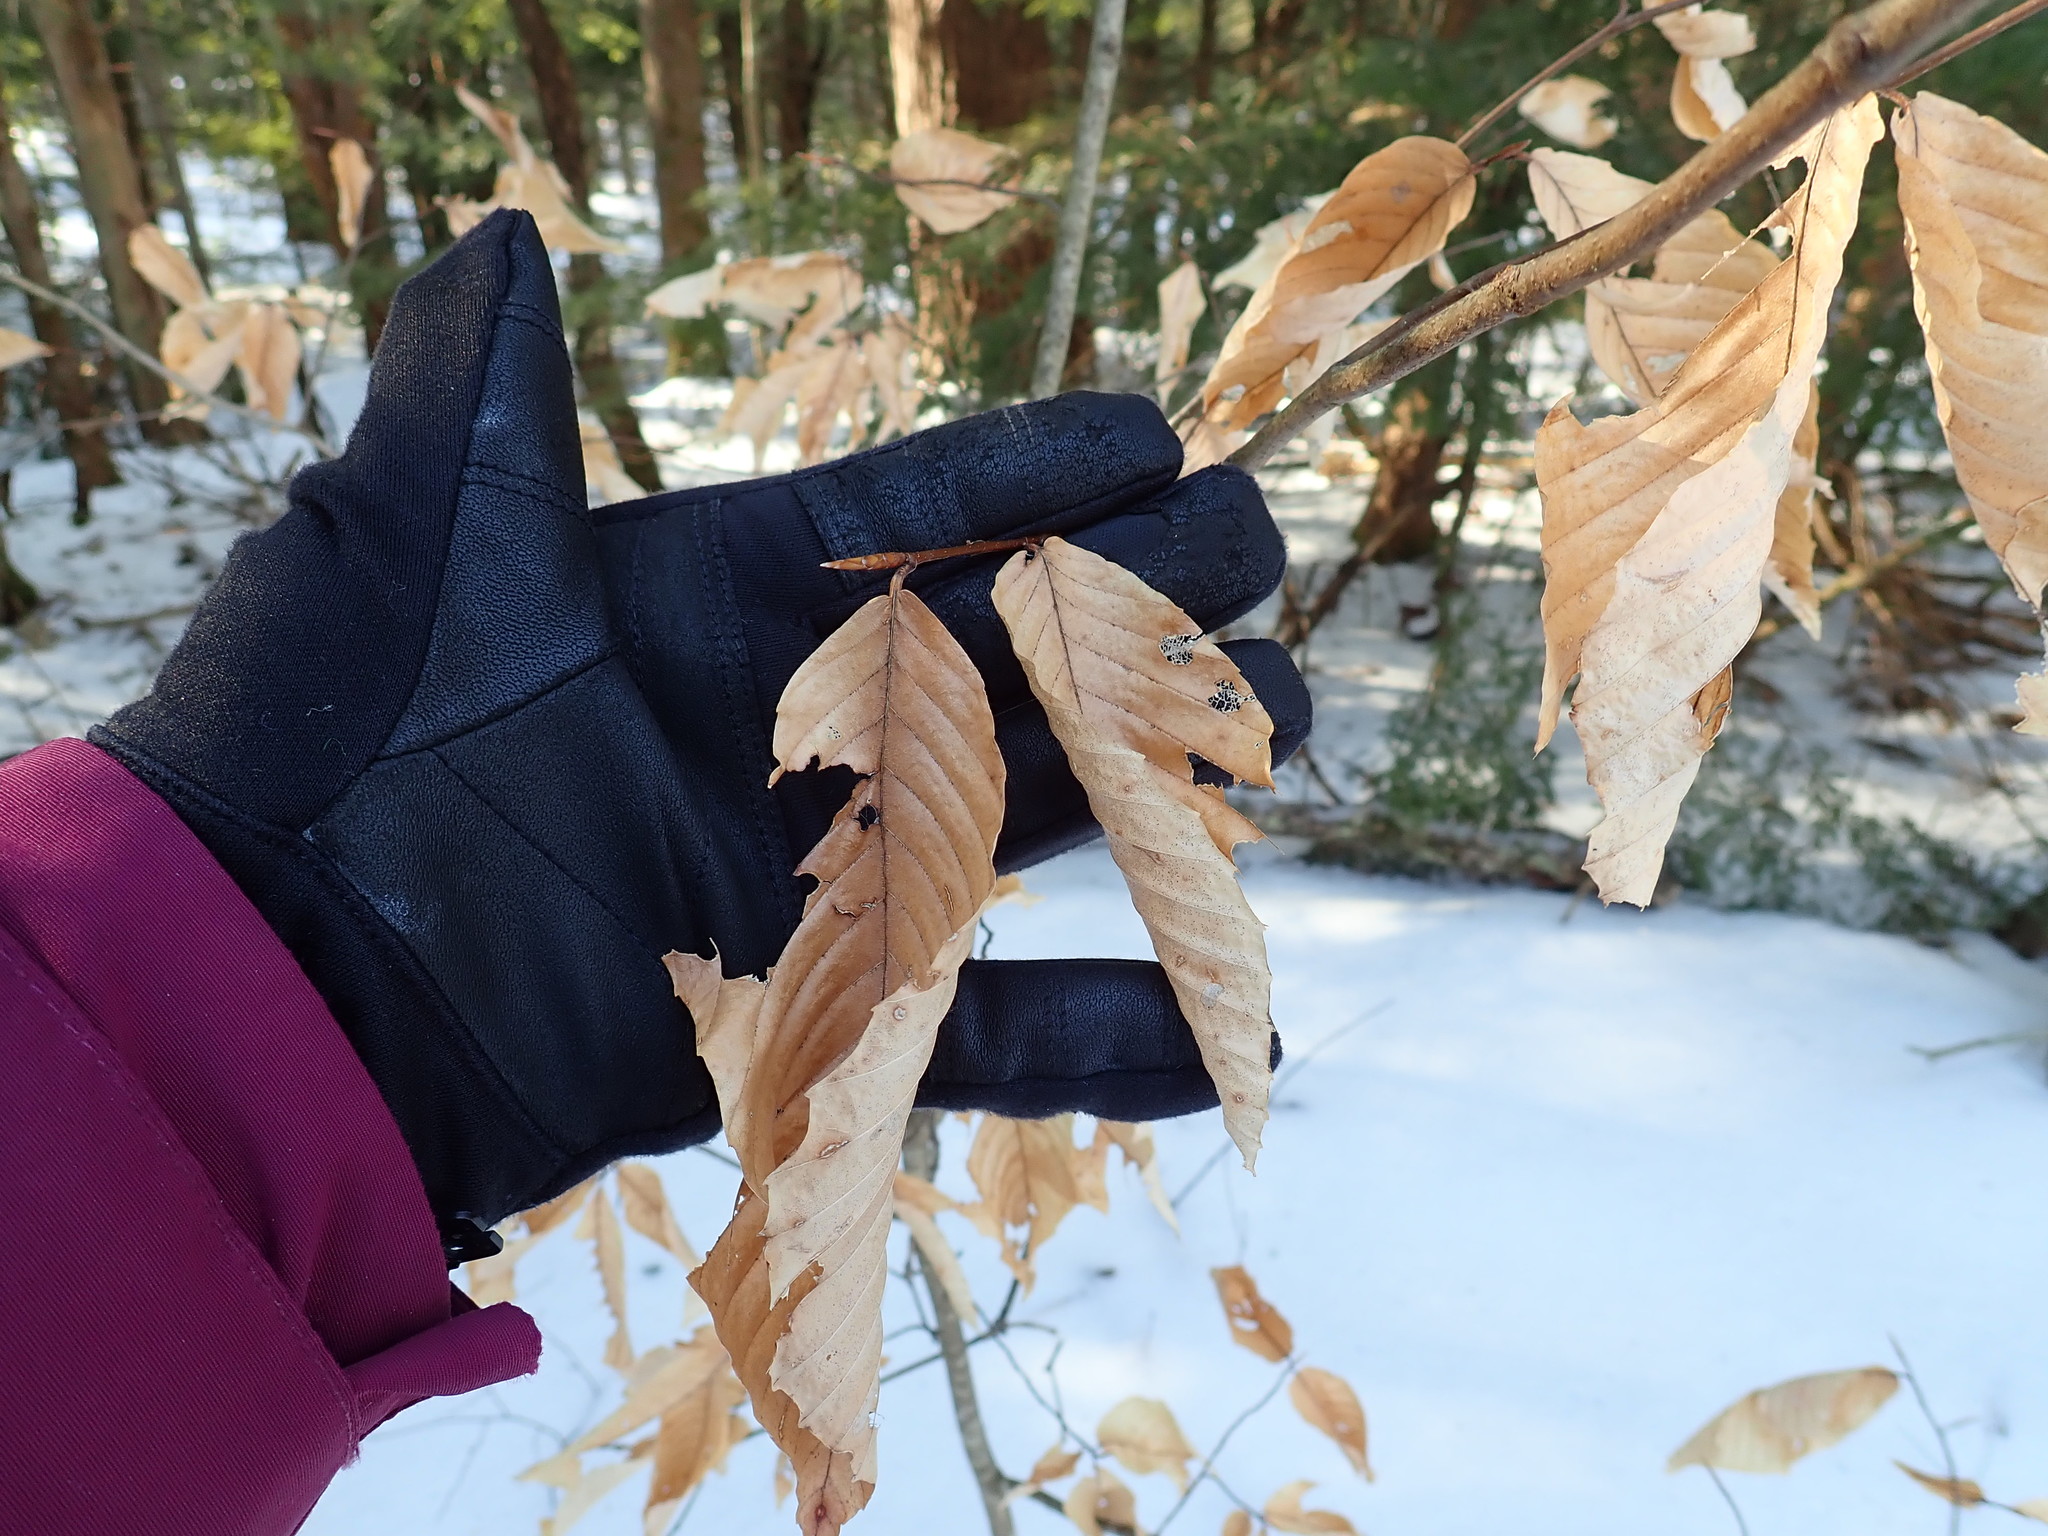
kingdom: Plantae
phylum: Tracheophyta
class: Magnoliopsida
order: Fagales
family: Fagaceae
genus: Fagus
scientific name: Fagus grandifolia
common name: American beech
